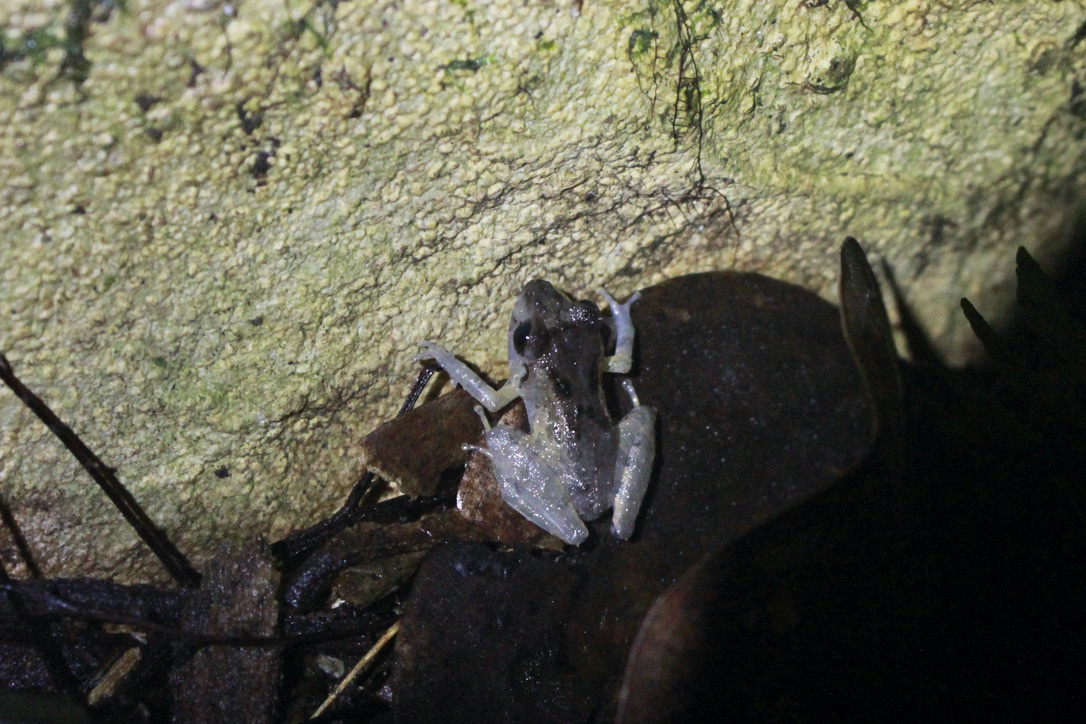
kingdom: Animalia
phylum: Chordata
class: Amphibia
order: Anura
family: Craugastoridae
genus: Pristimantis
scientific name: Pristimantis urichi
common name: Lesser antilles robber frog
